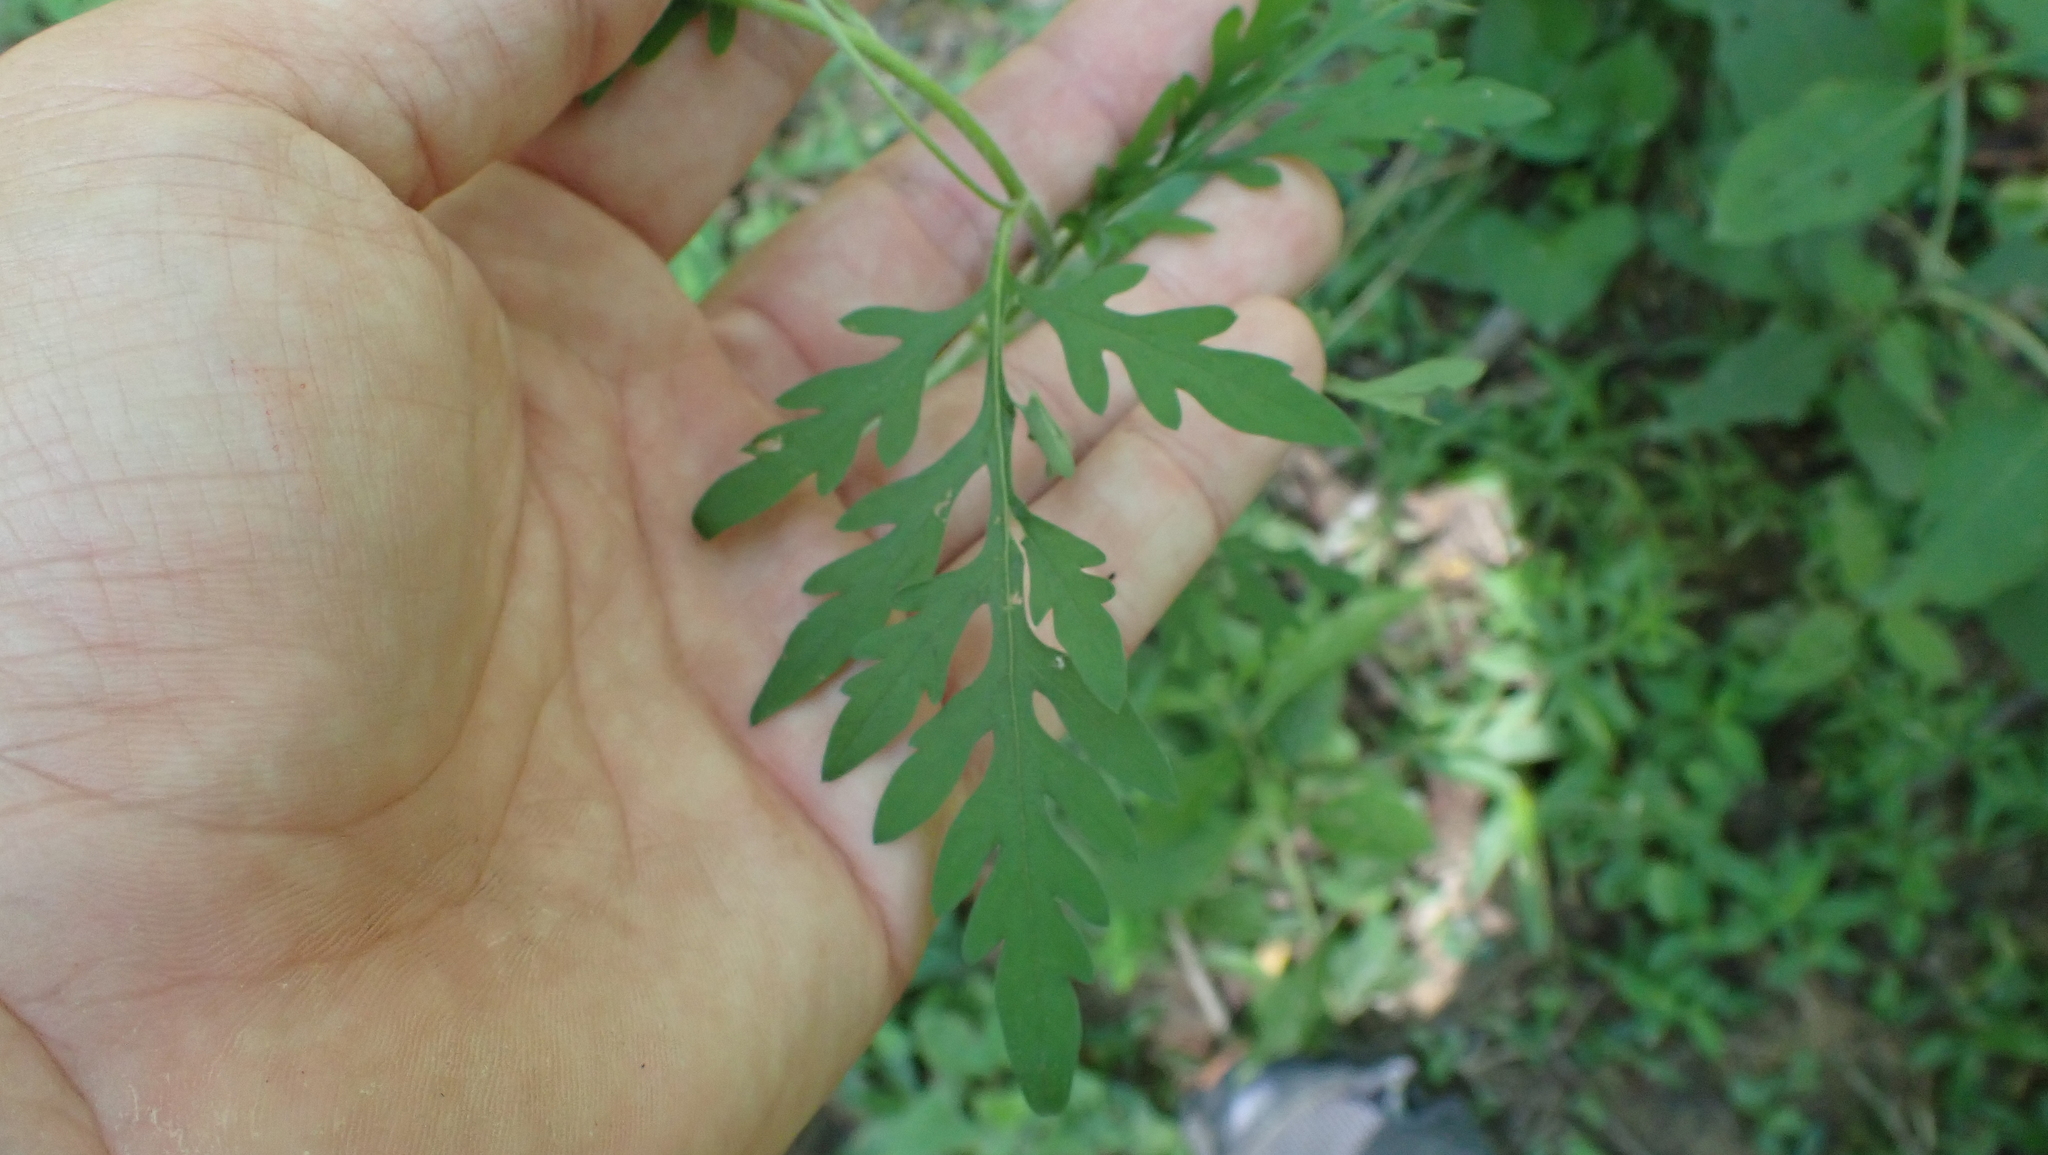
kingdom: Plantae
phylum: Tracheophyta
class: Magnoliopsida
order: Asterales
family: Asteraceae
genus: Ambrosia
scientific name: Ambrosia artemisiifolia
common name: Annual ragweed
